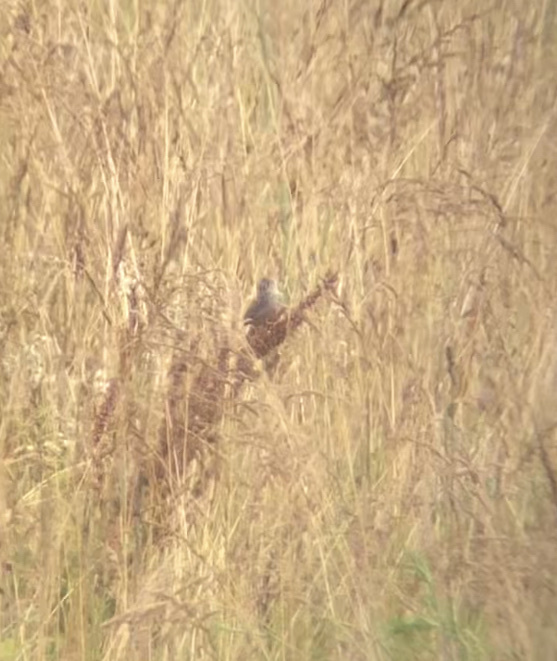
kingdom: Animalia
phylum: Chordata
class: Aves
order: Passeriformes
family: Passerellidae
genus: Centronyx
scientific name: Centronyx henslowii
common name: Henslow's sparrow
